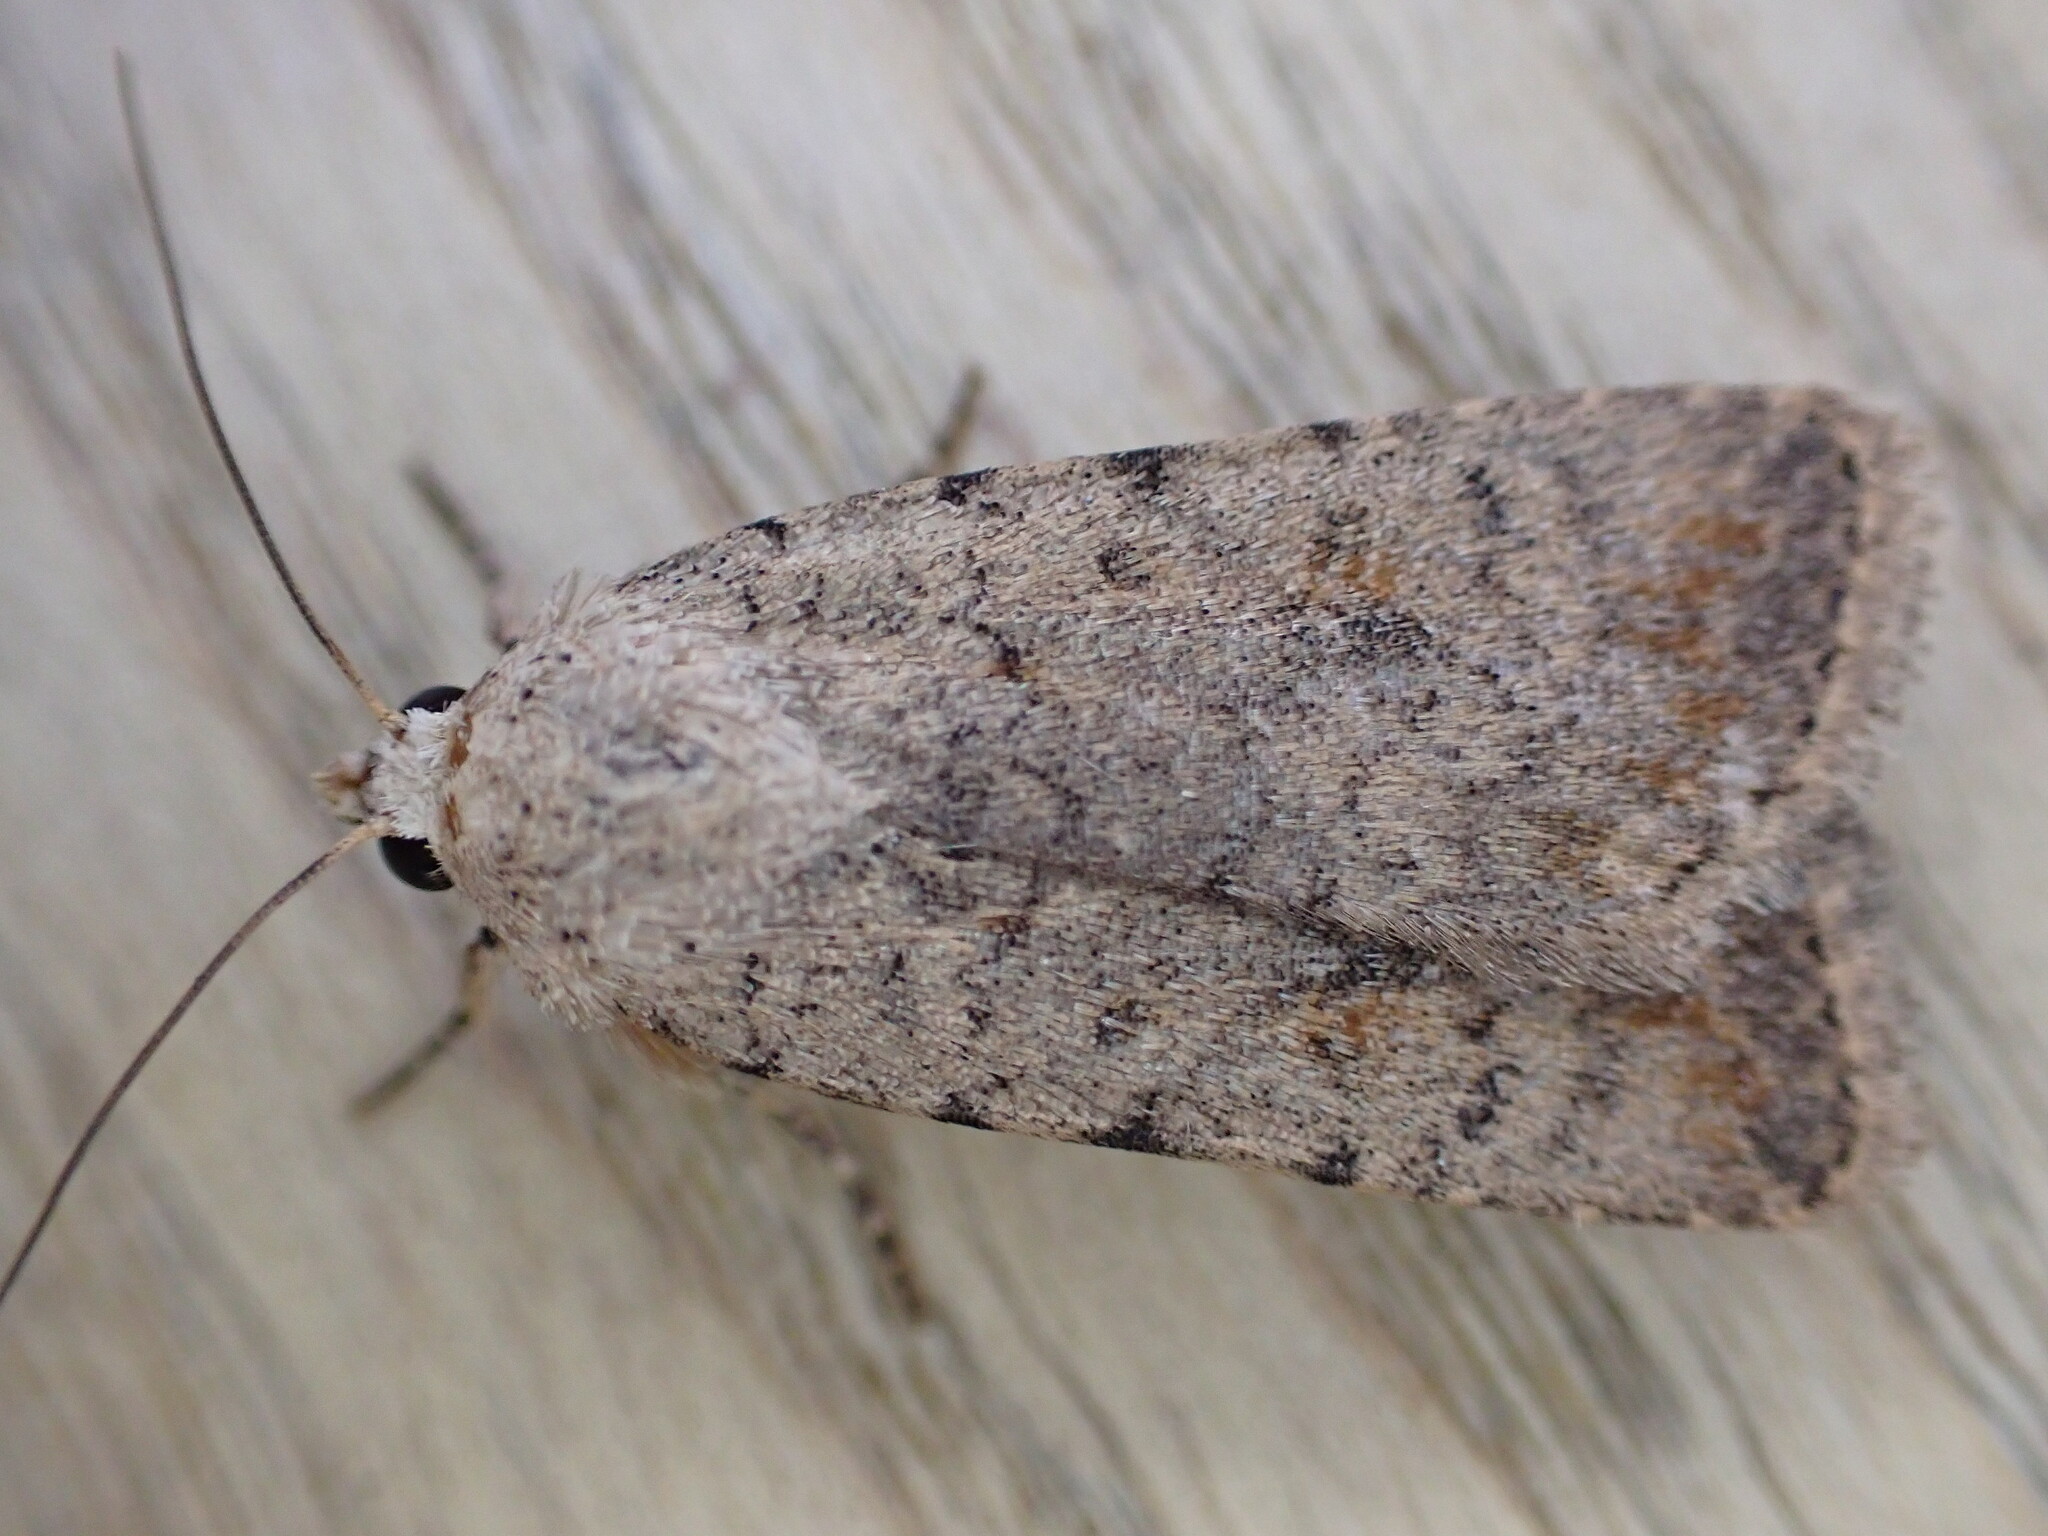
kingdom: Animalia
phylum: Arthropoda
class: Insecta
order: Lepidoptera
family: Noctuidae
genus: Caradrina
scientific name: Caradrina clavipalpis
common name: Pale mottled willow
